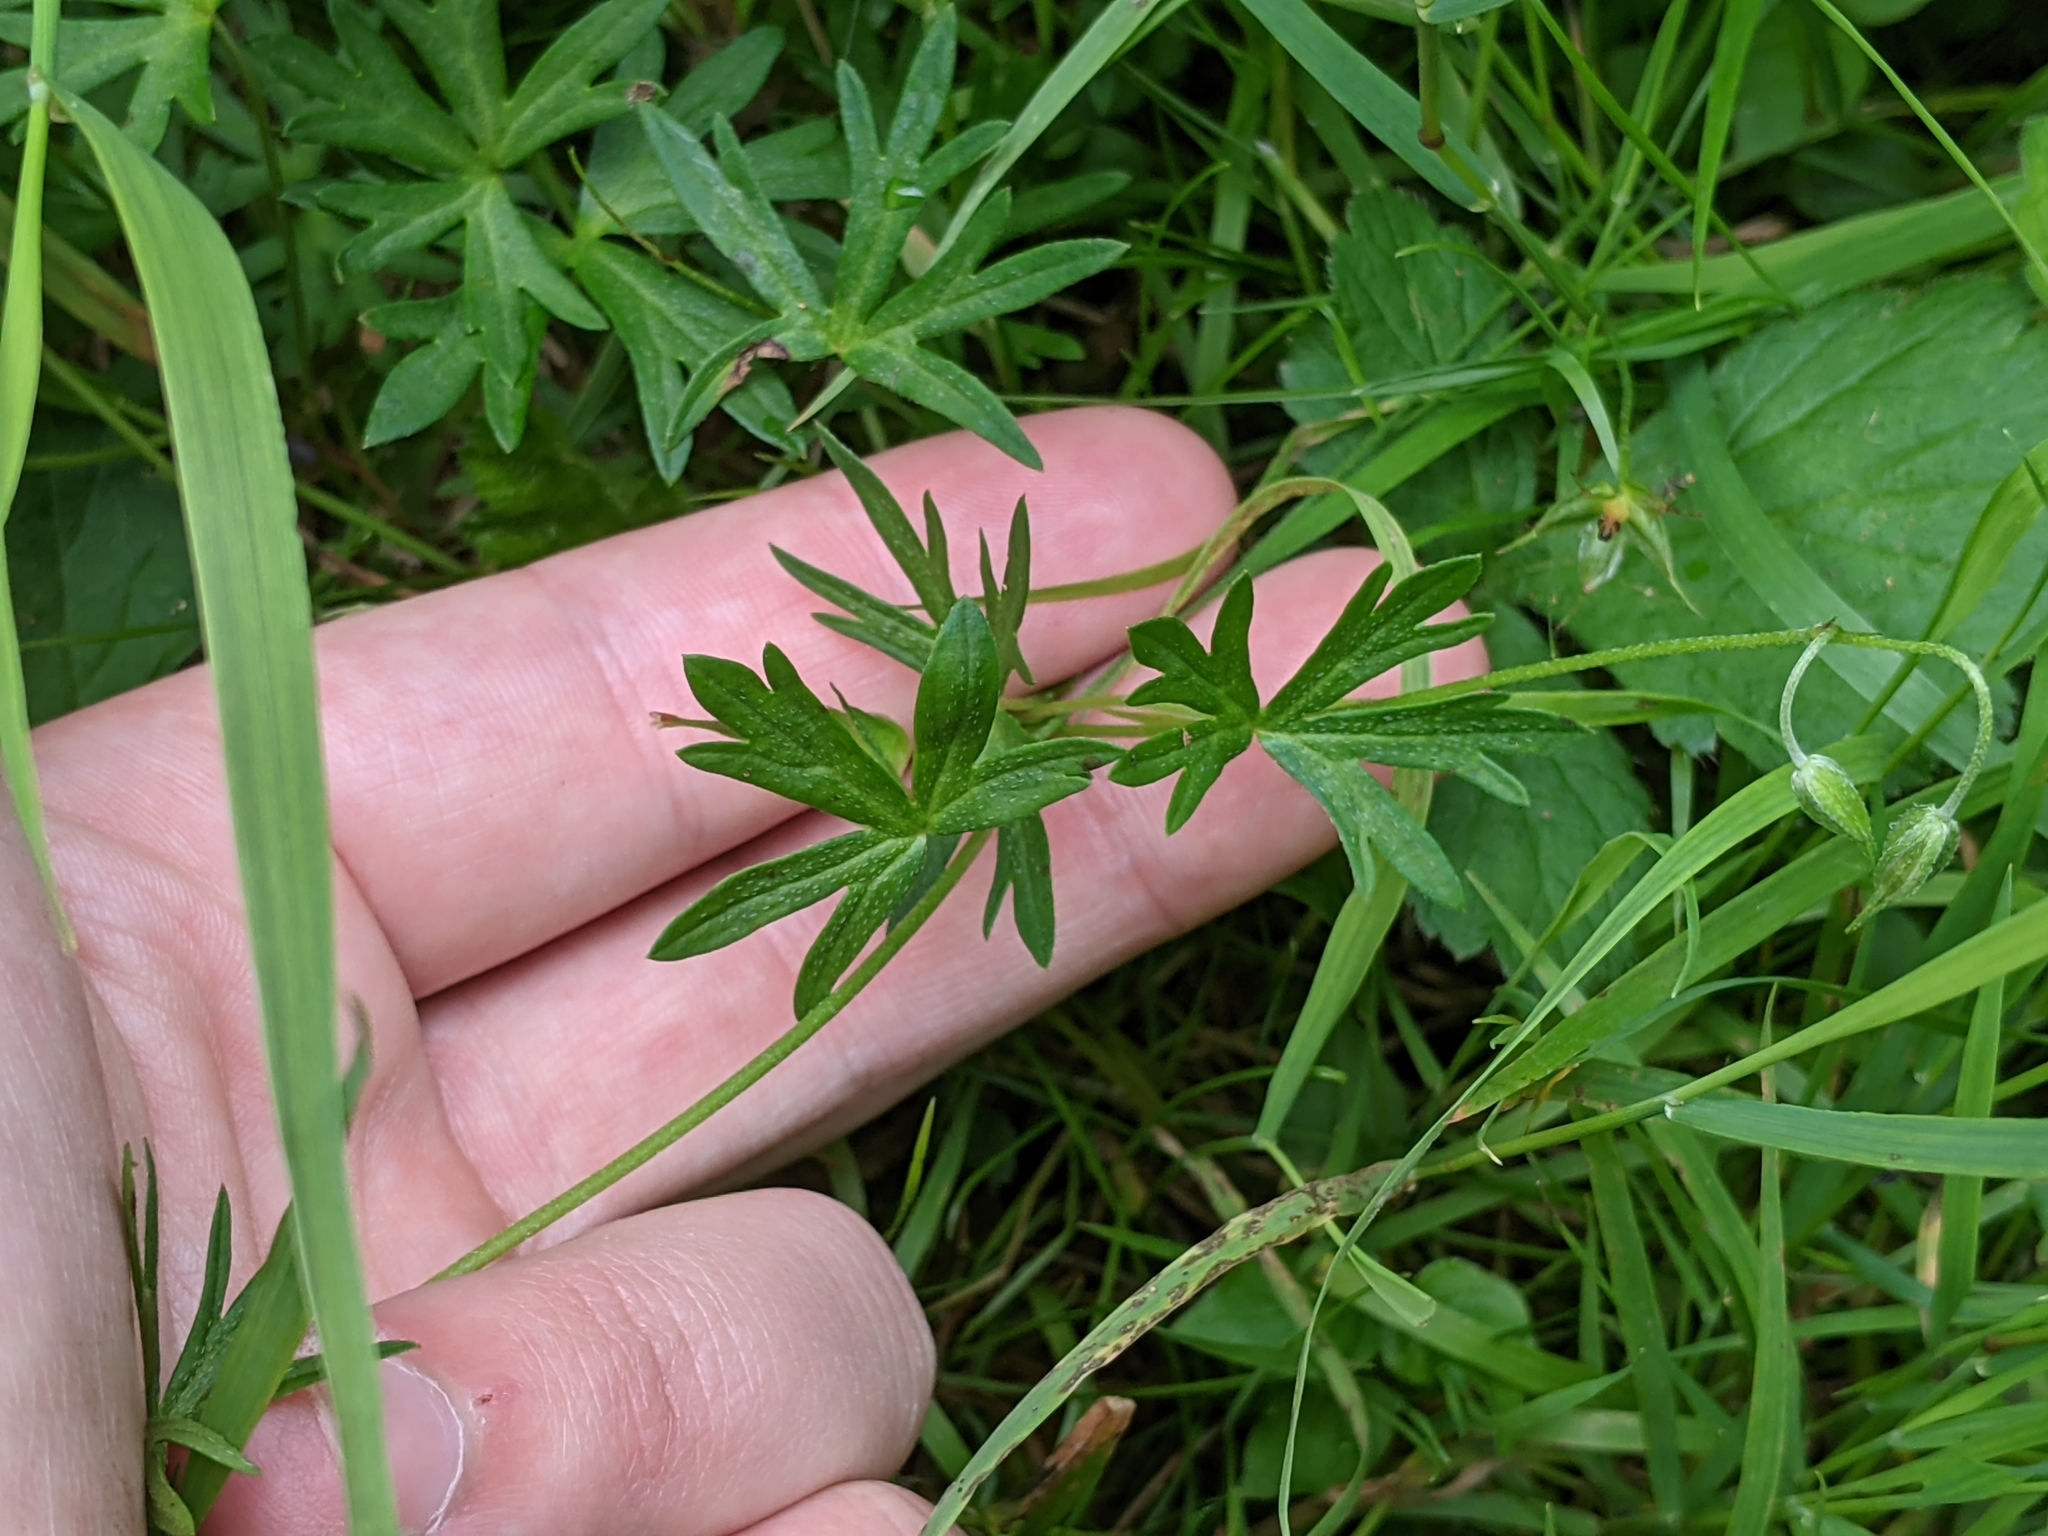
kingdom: Plantae
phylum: Tracheophyta
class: Magnoliopsida
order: Geraniales
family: Geraniaceae
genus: Geranium
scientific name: Geranium columbinum
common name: Long-stalked crane's-bill
